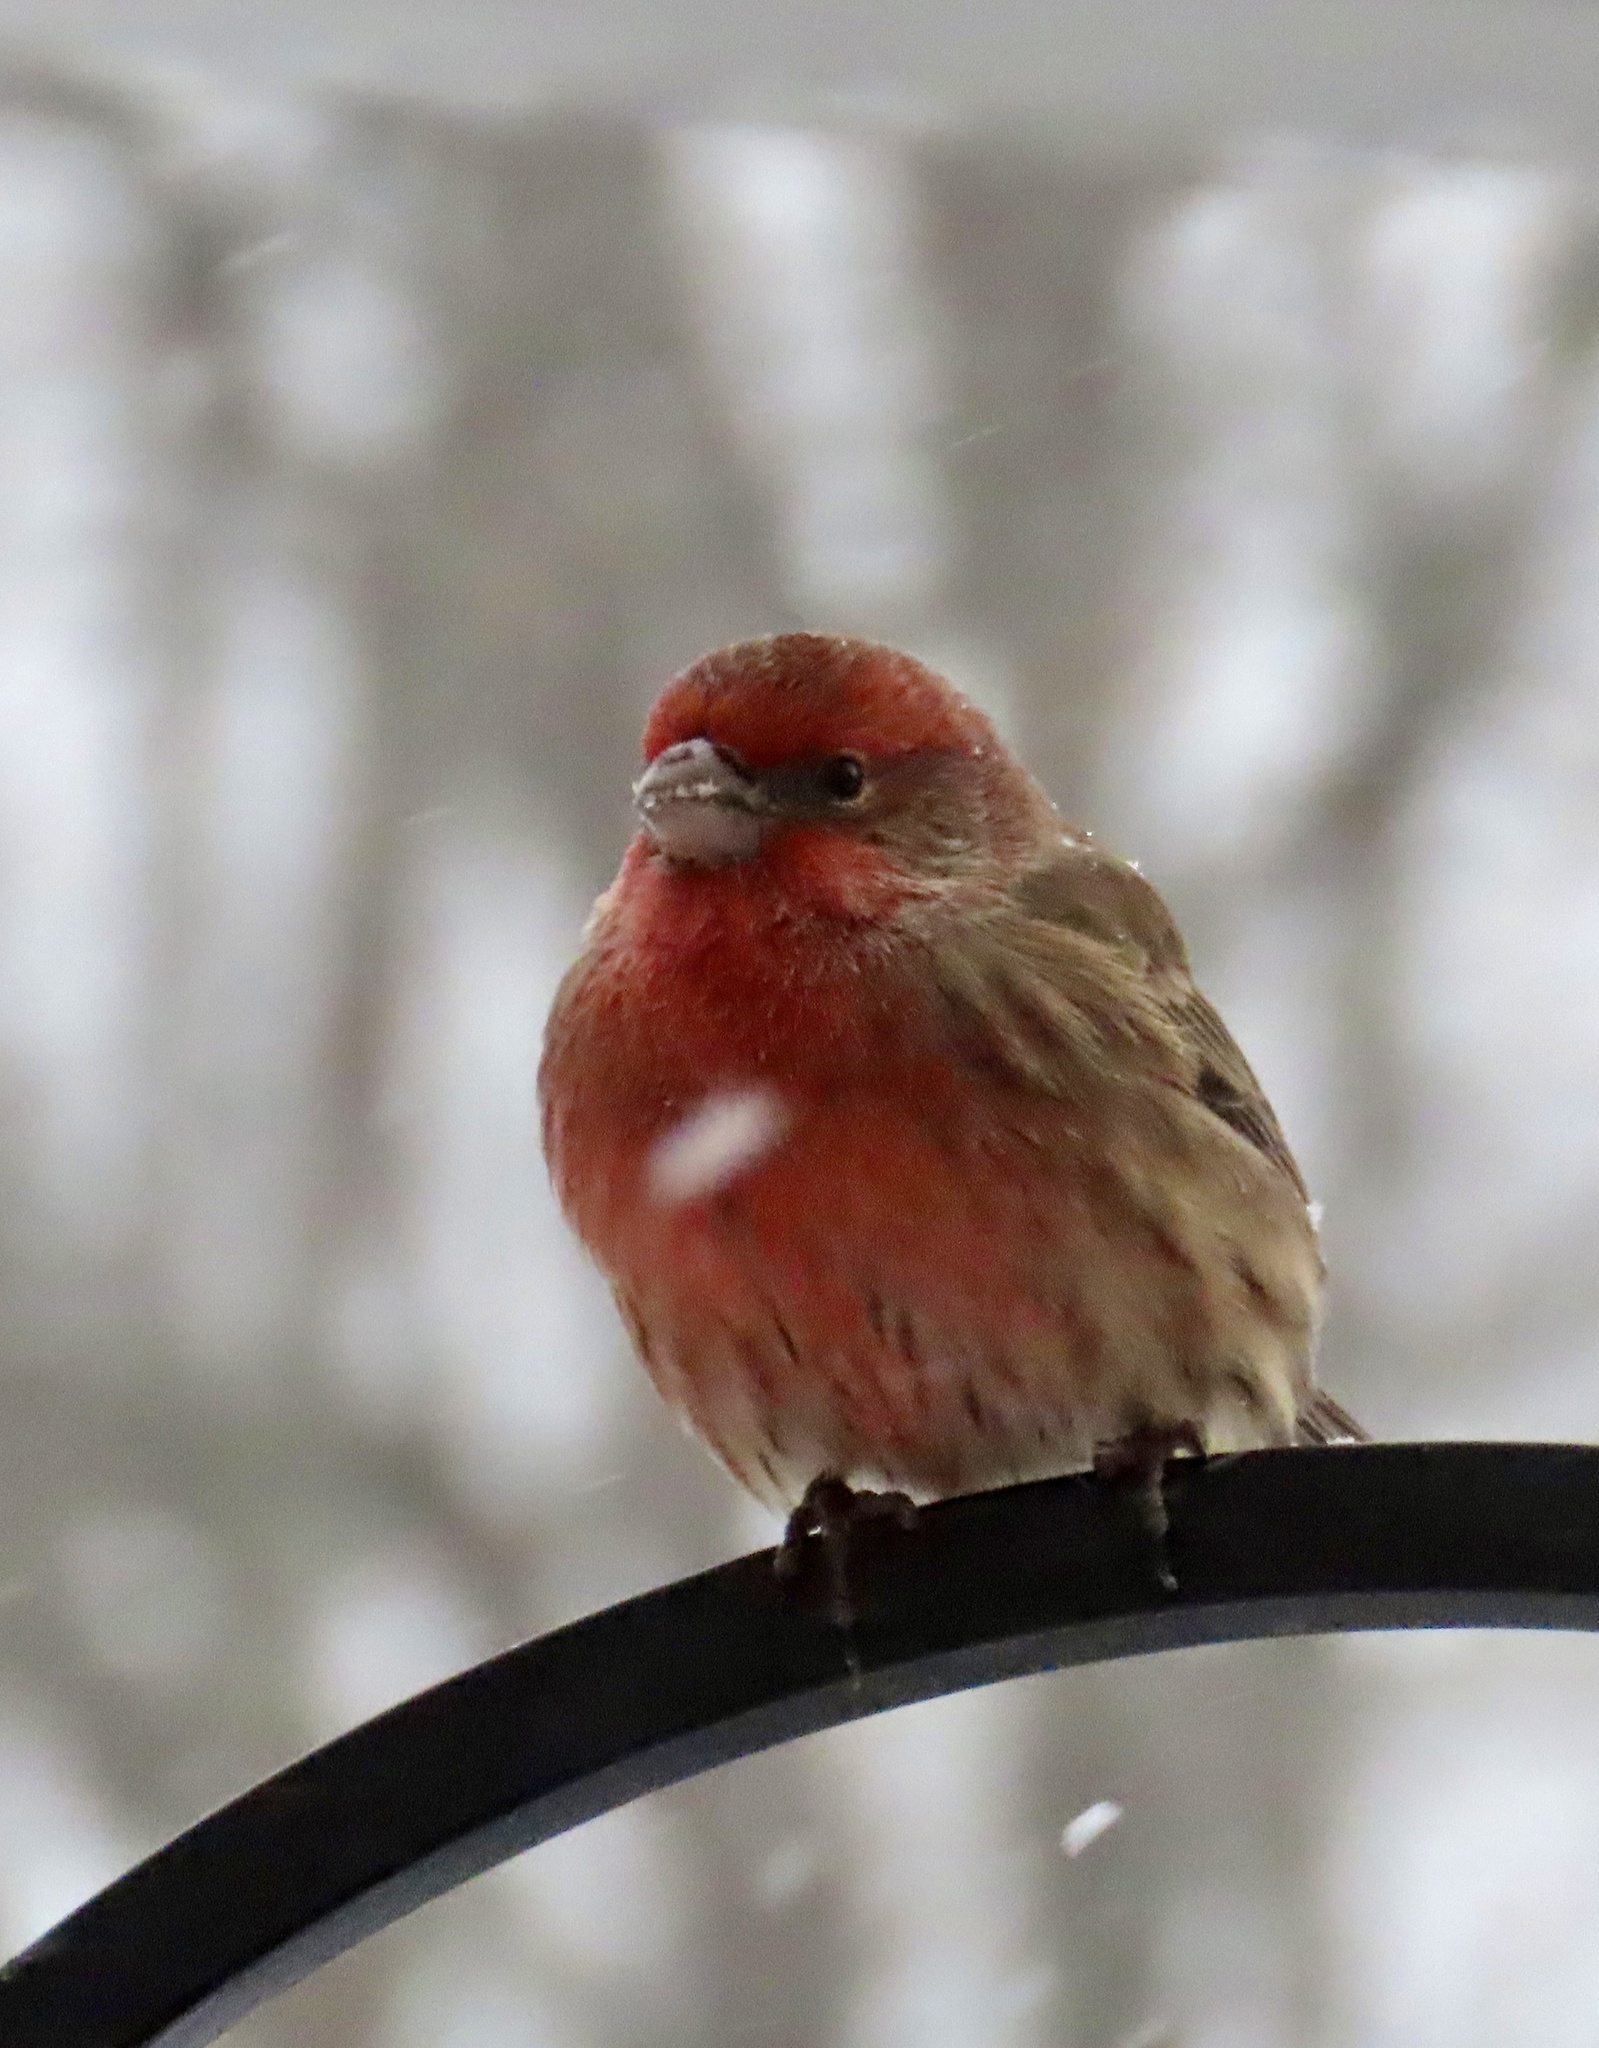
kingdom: Animalia
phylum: Chordata
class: Aves
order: Passeriformes
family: Fringillidae
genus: Haemorhous
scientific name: Haemorhous mexicanus
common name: House finch
